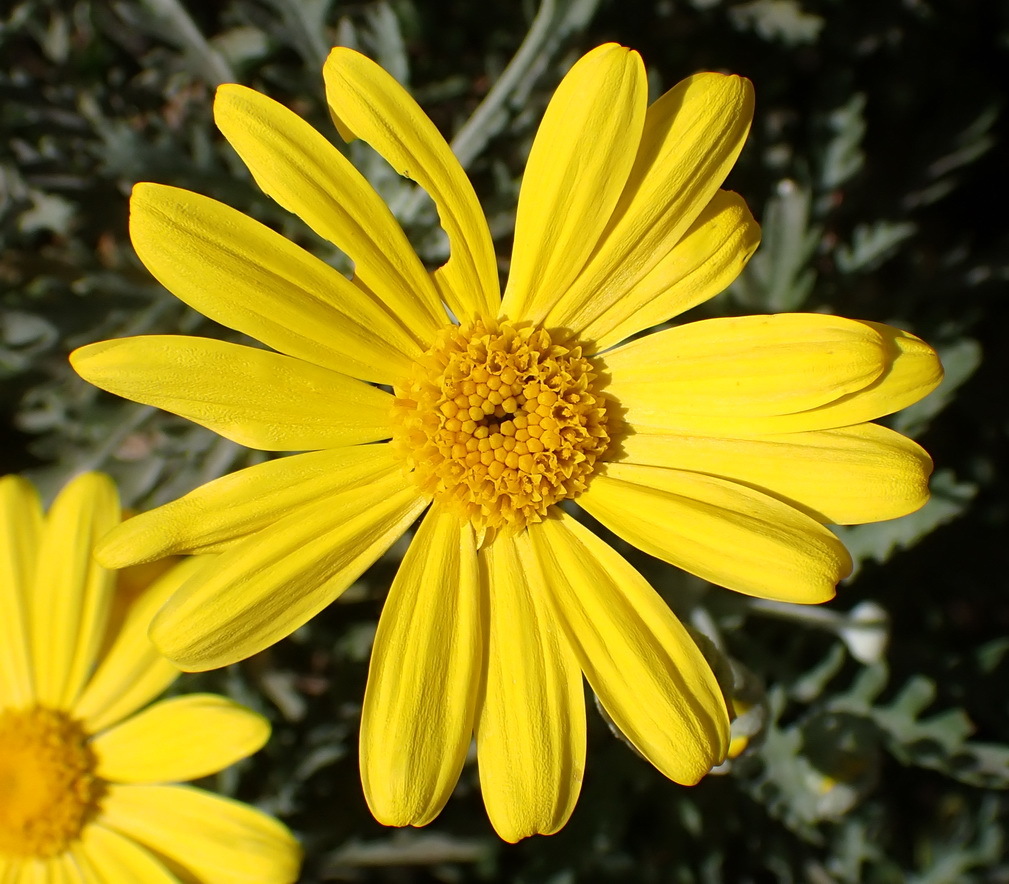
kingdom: Plantae
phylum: Tracheophyta
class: Magnoliopsida
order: Asterales
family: Asteraceae
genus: Euryops
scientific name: Euryops pectinatus
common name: Gray-leaf euryops
